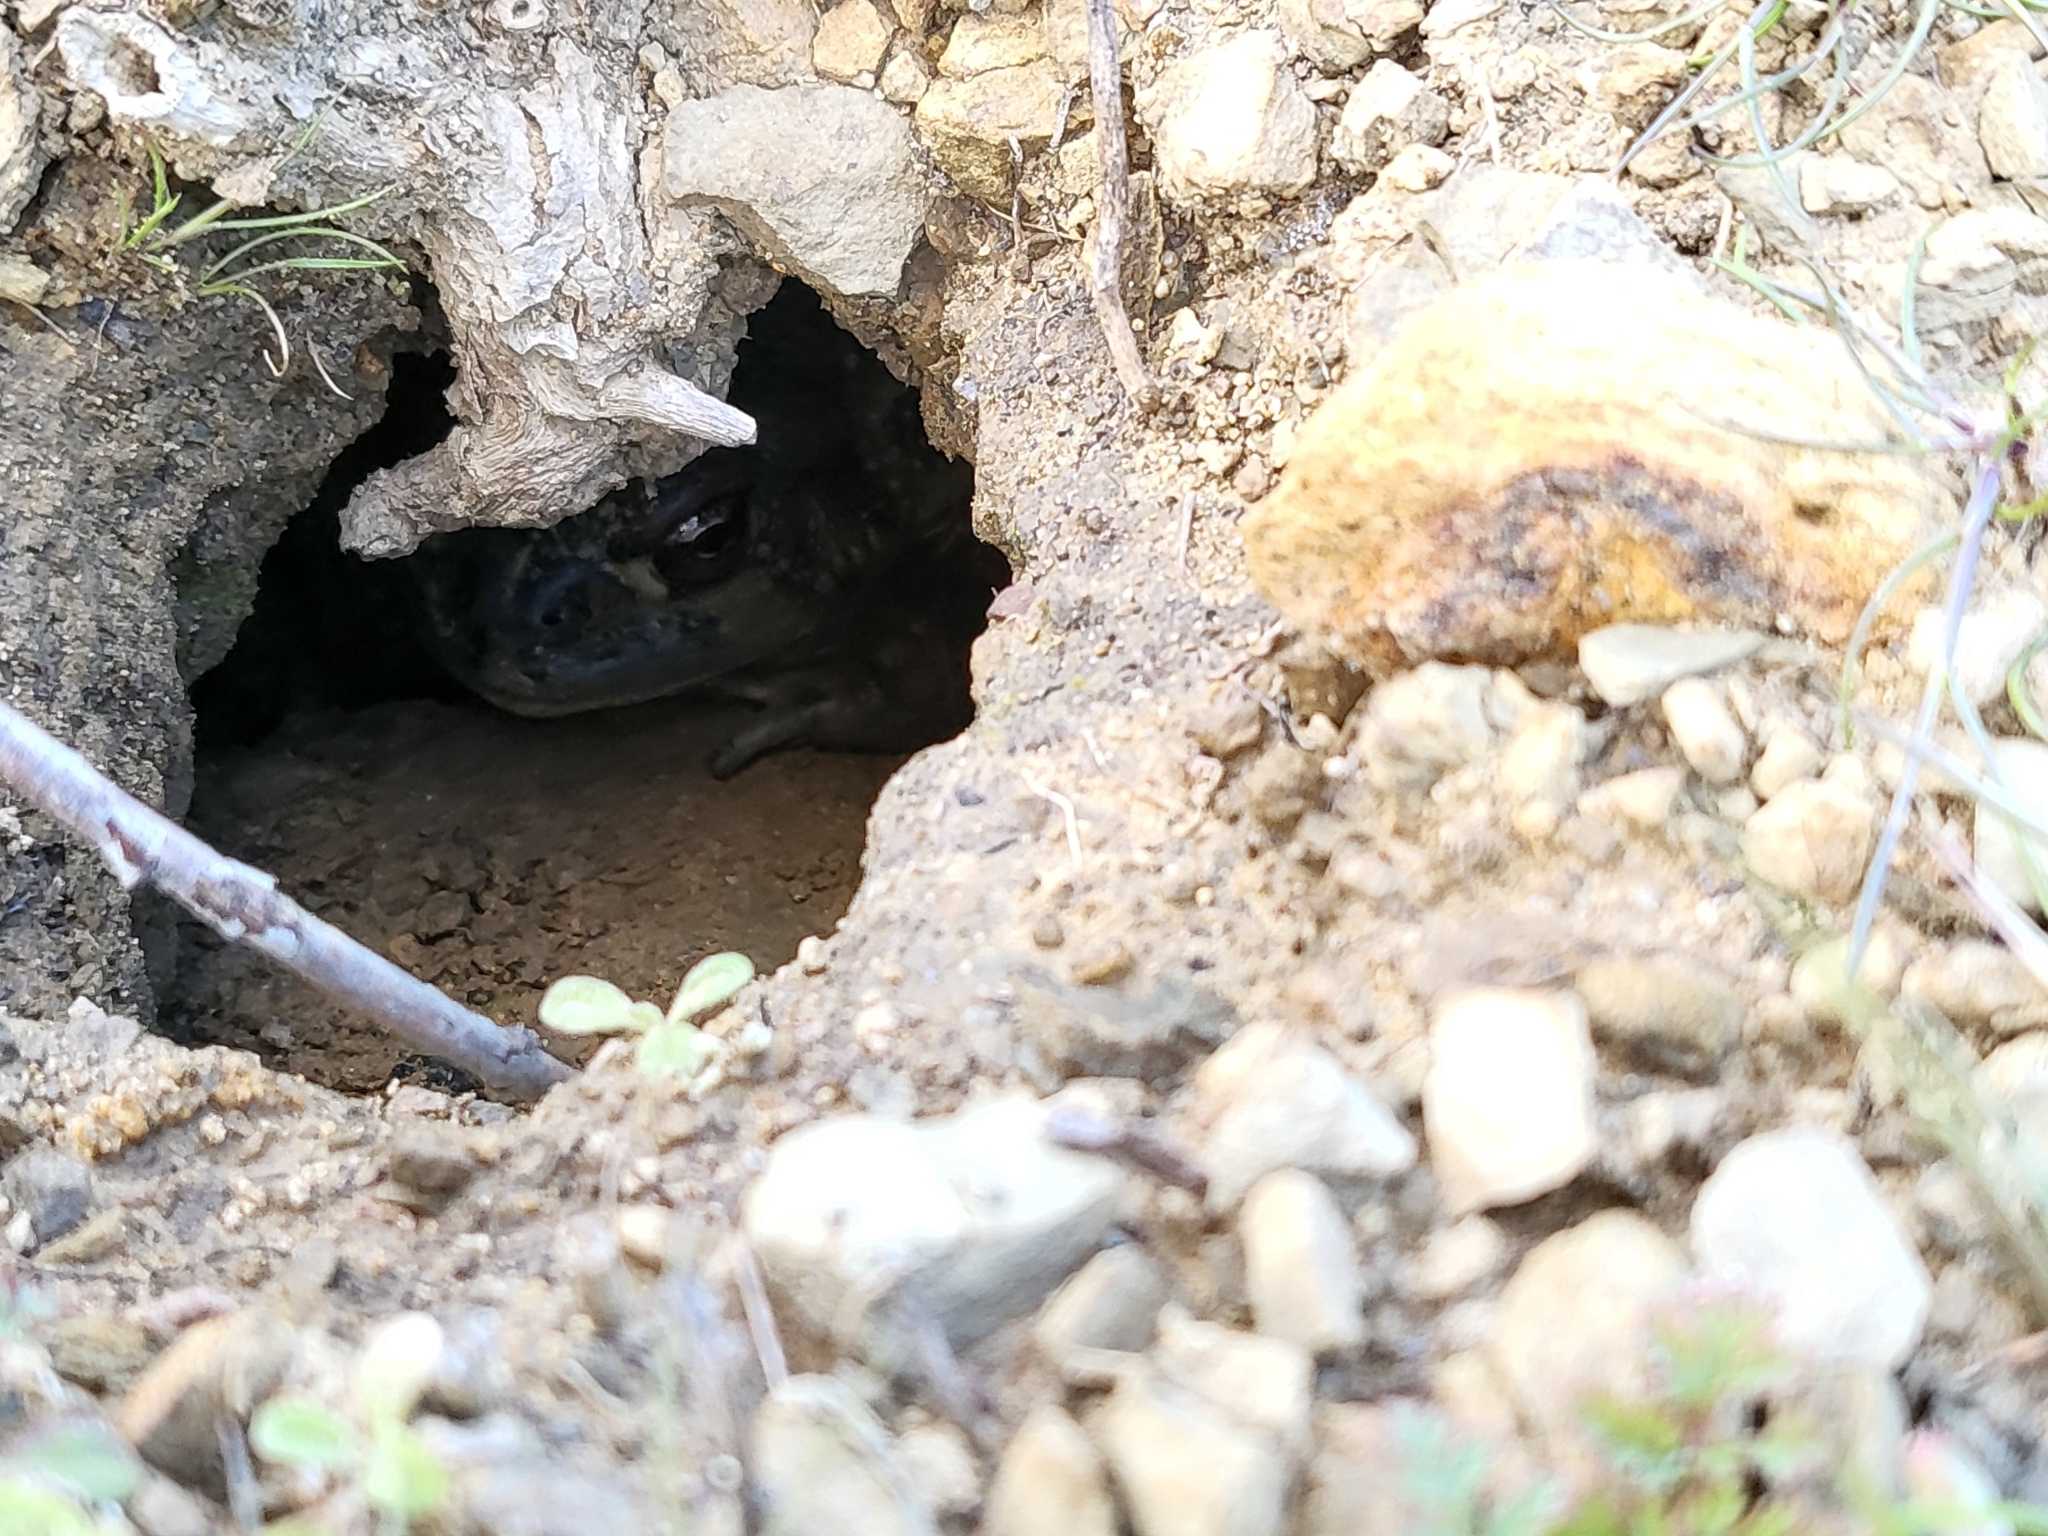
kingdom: Animalia
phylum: Chordata
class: Amphibia
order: Anura
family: Bufonidae
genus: Anaxyrus
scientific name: Anaxyrus boreas
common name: Western toad
